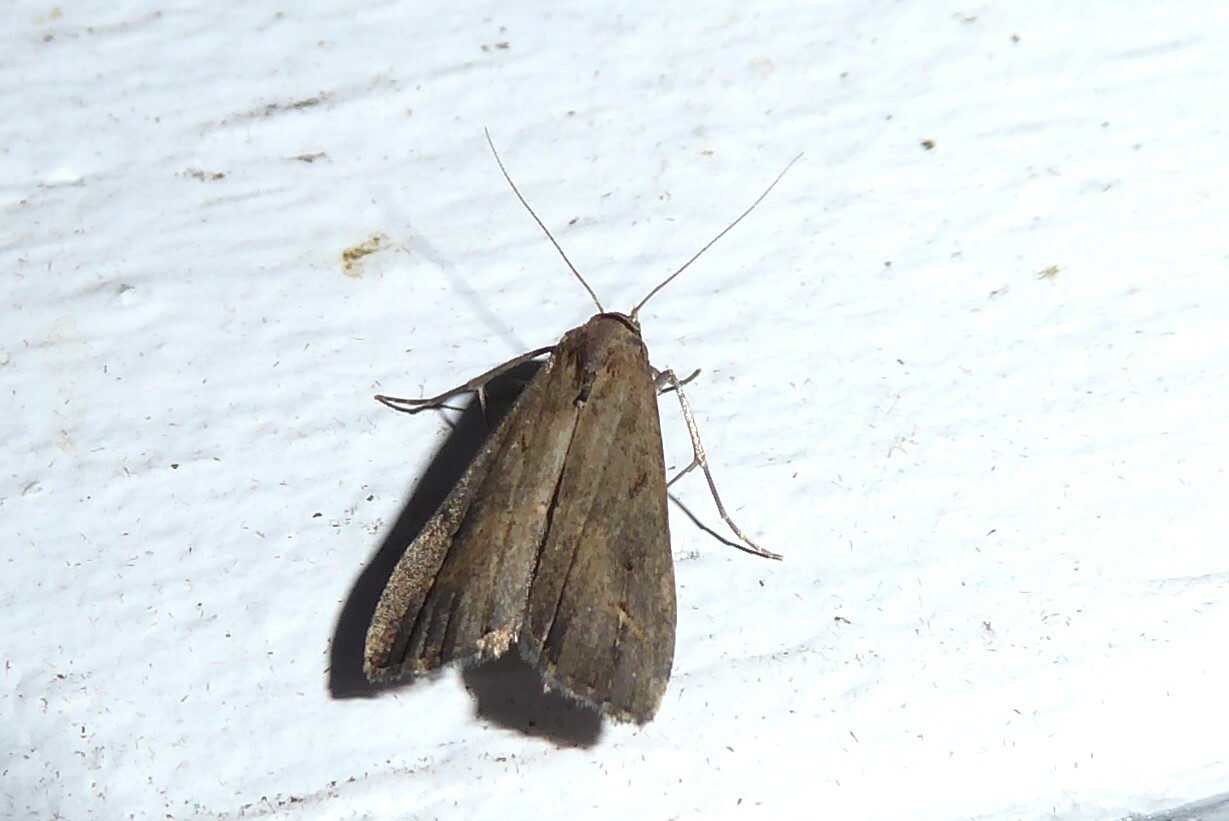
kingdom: Animalia
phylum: Arthropoda
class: Insecta
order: Lepidoptera
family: Erebidae
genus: Schrankia
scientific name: Schrankia costaestrigalis
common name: Pinion-streaked snout
